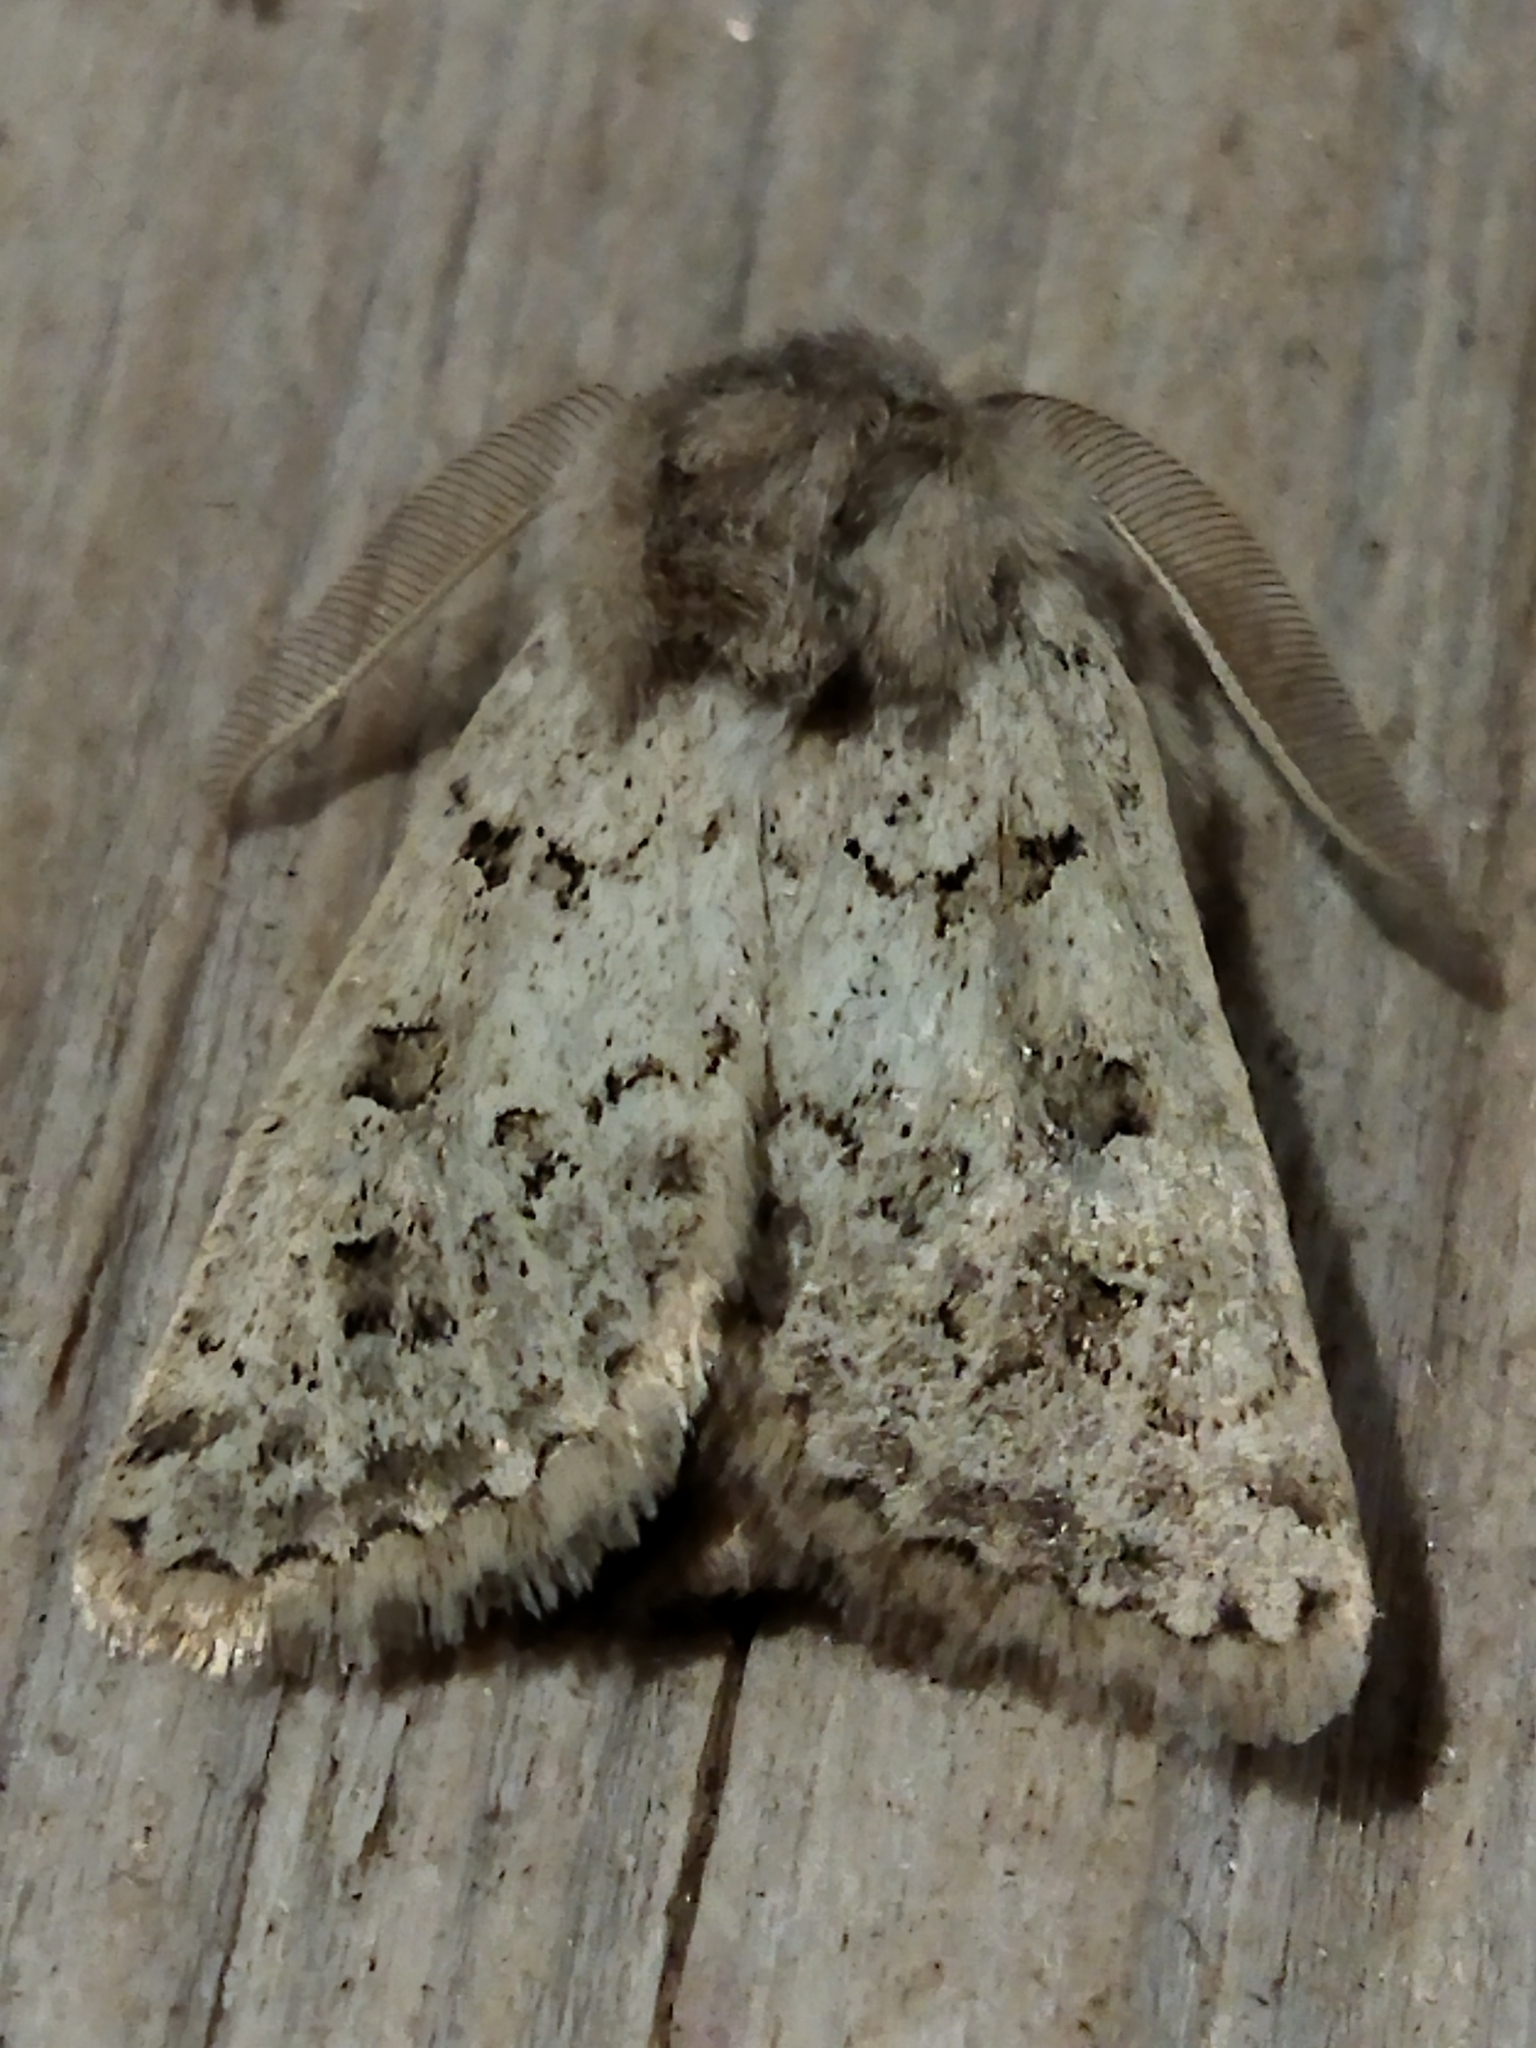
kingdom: Animalia
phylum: Arthropoda
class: Insecta
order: Lepidoptera
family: Noctuidae
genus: Episema
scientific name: Episema lederi
